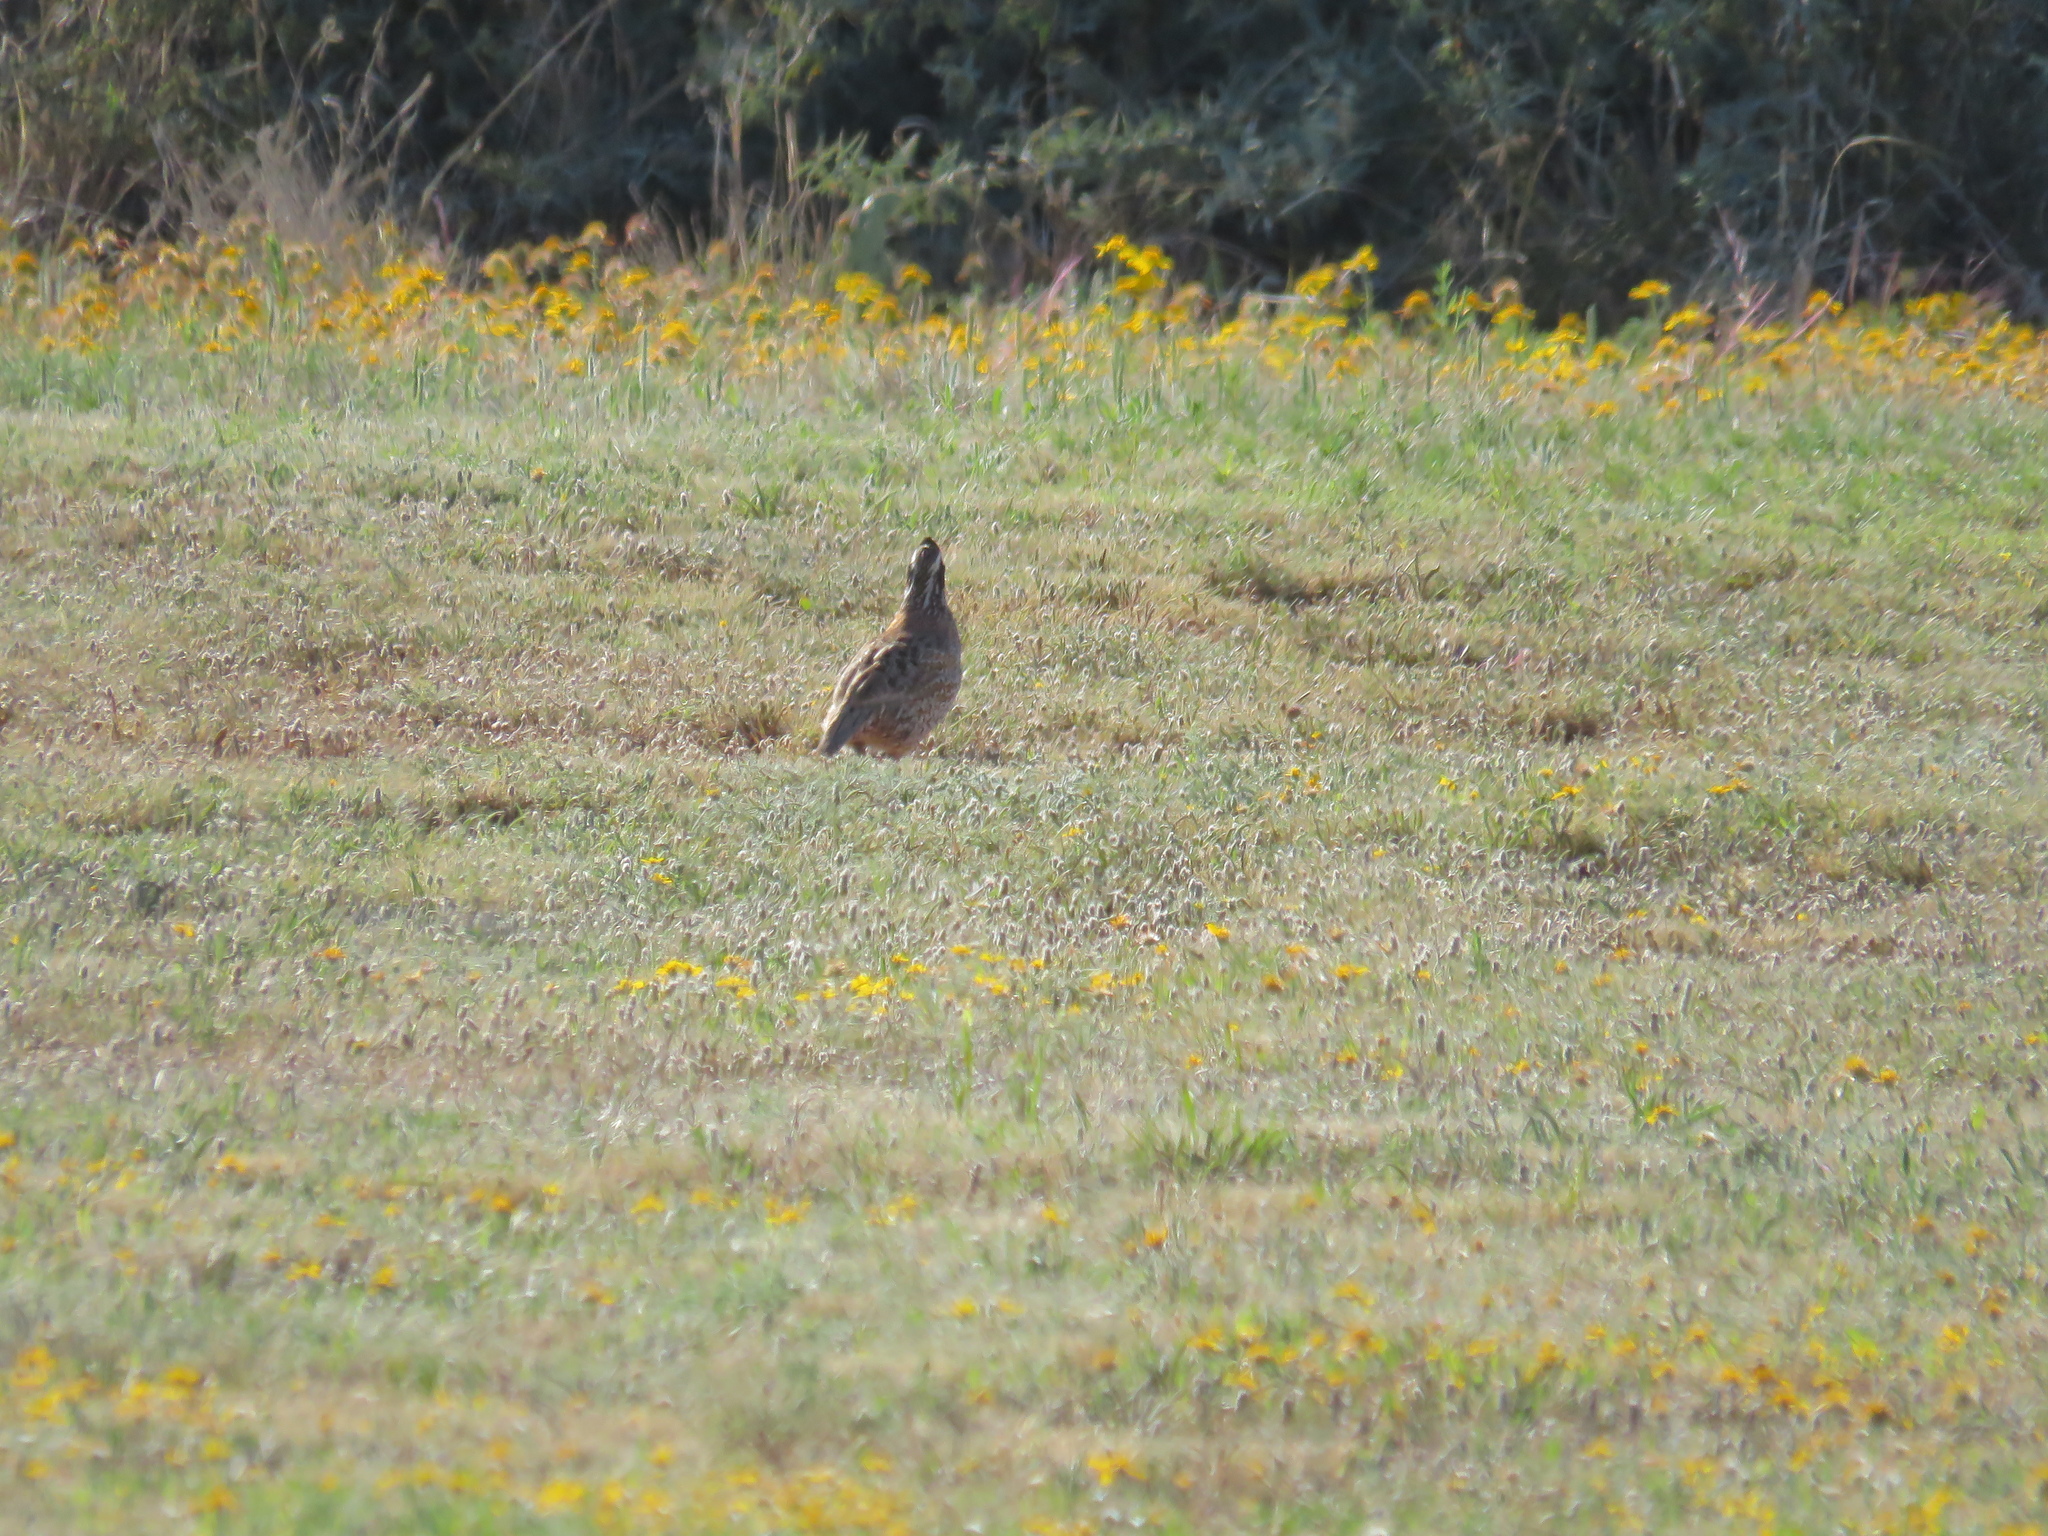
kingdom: Animalia
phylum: Chordata
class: Aves
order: Galliformes
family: Odontophoridae
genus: Colinus
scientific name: Colinus virginianus
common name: Northern bobwhite
